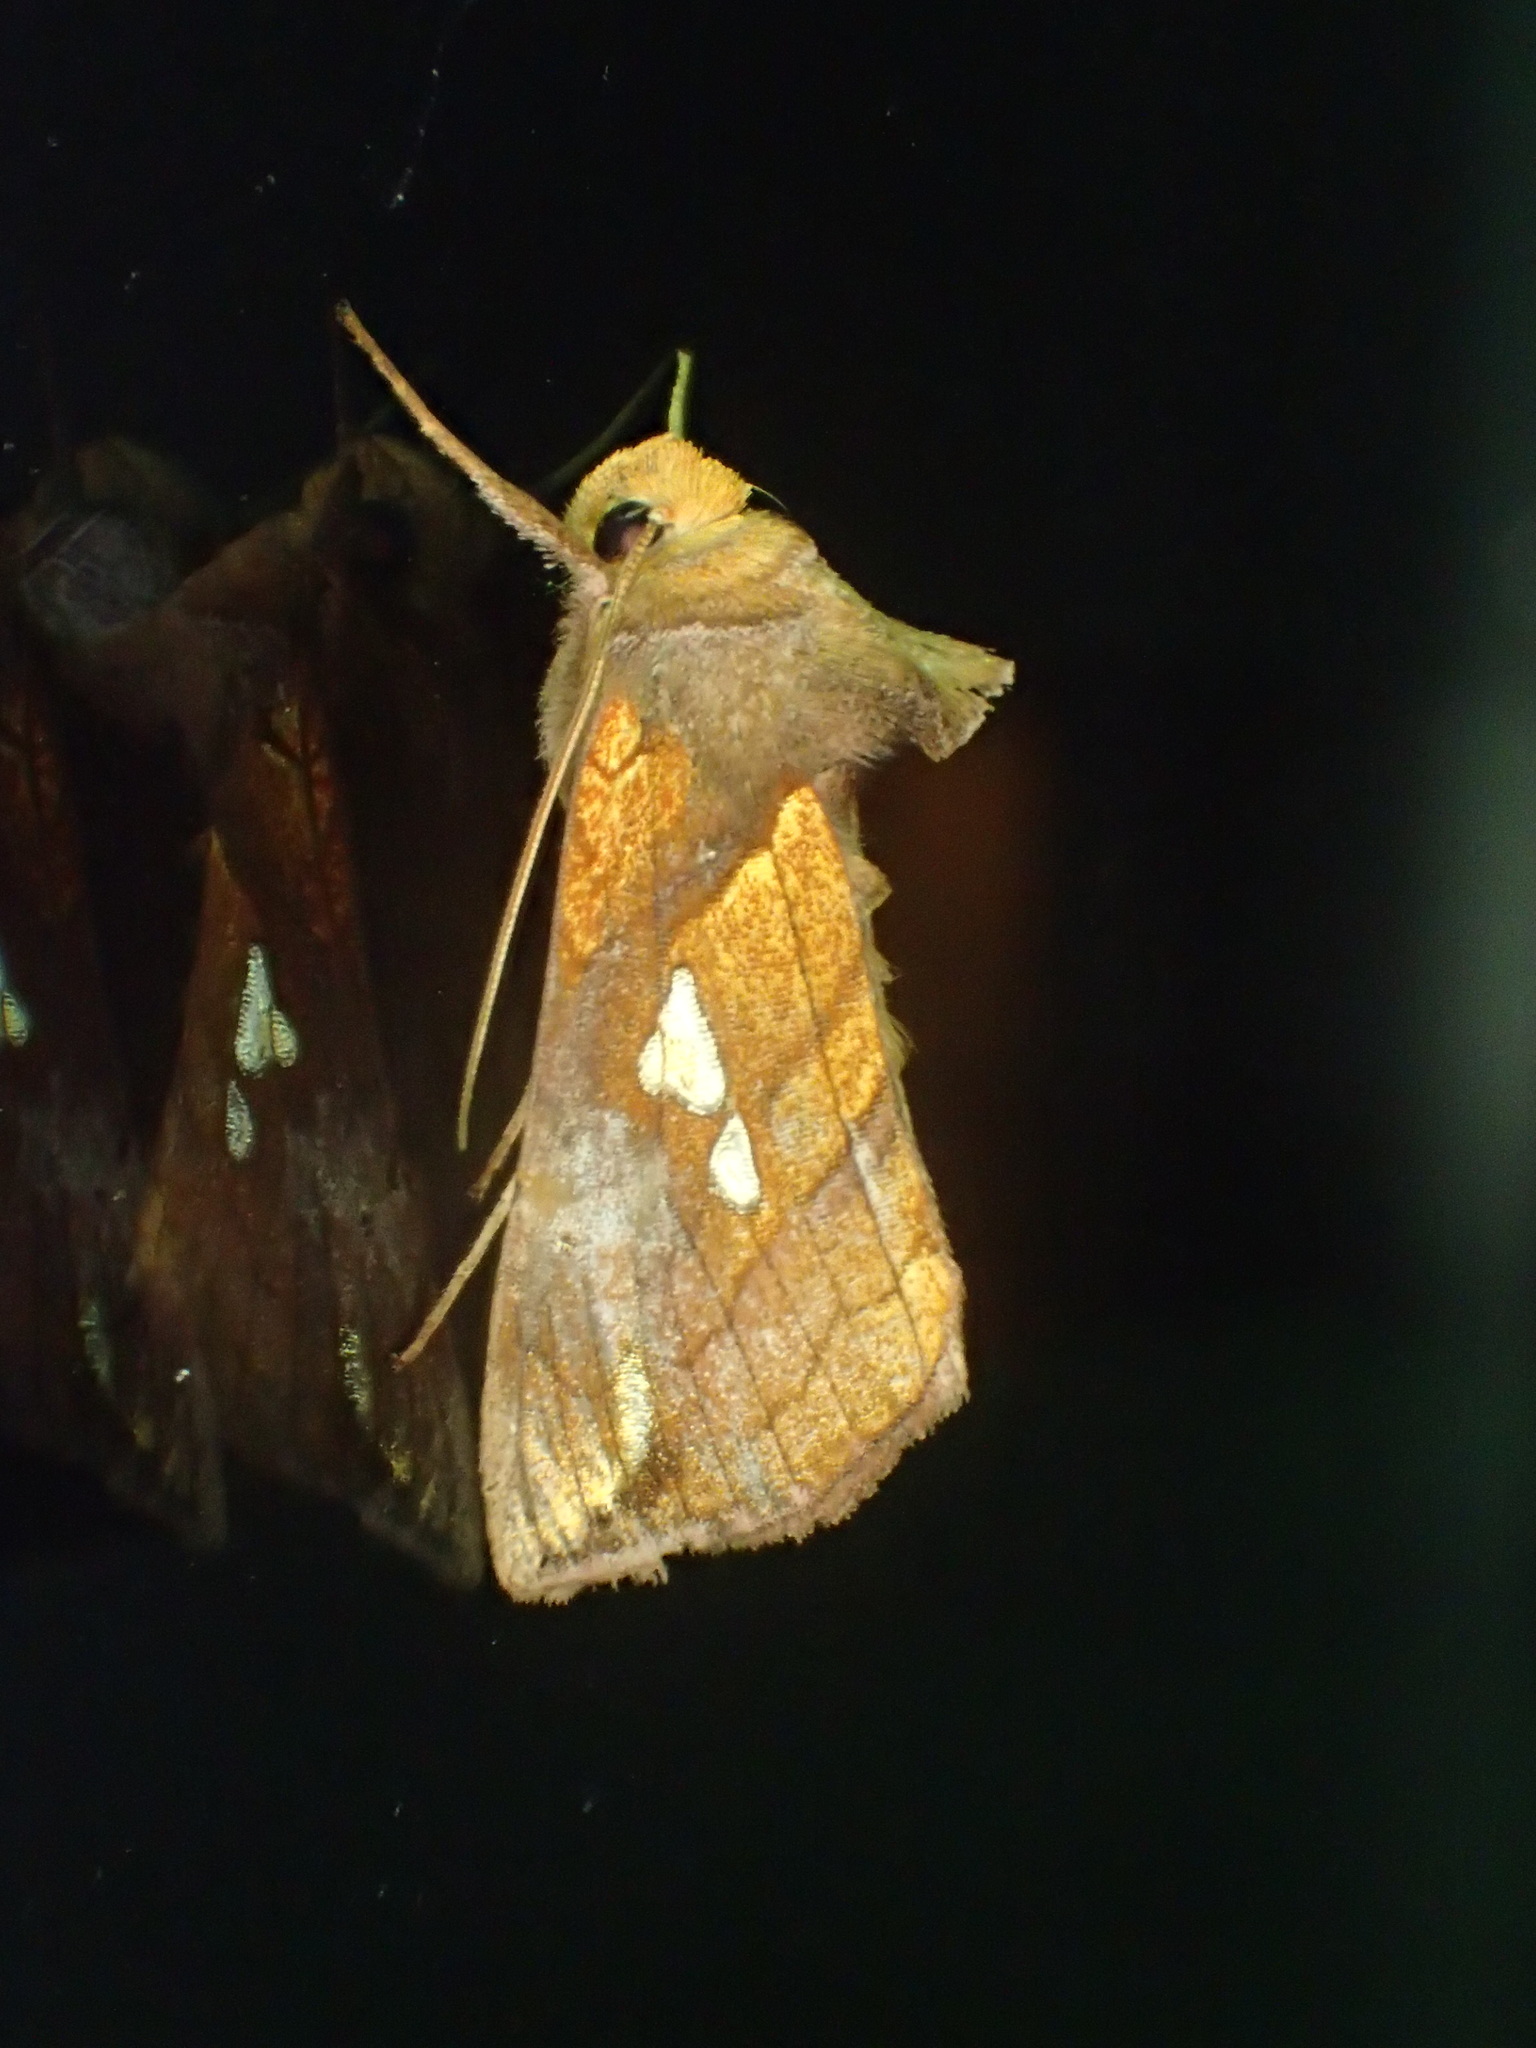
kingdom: Animalia
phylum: Arthropoda
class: Insecta
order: Lepidoptera
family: Noctuidae
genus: Plusia
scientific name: Plusia putnami
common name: Lempke's gold spot
